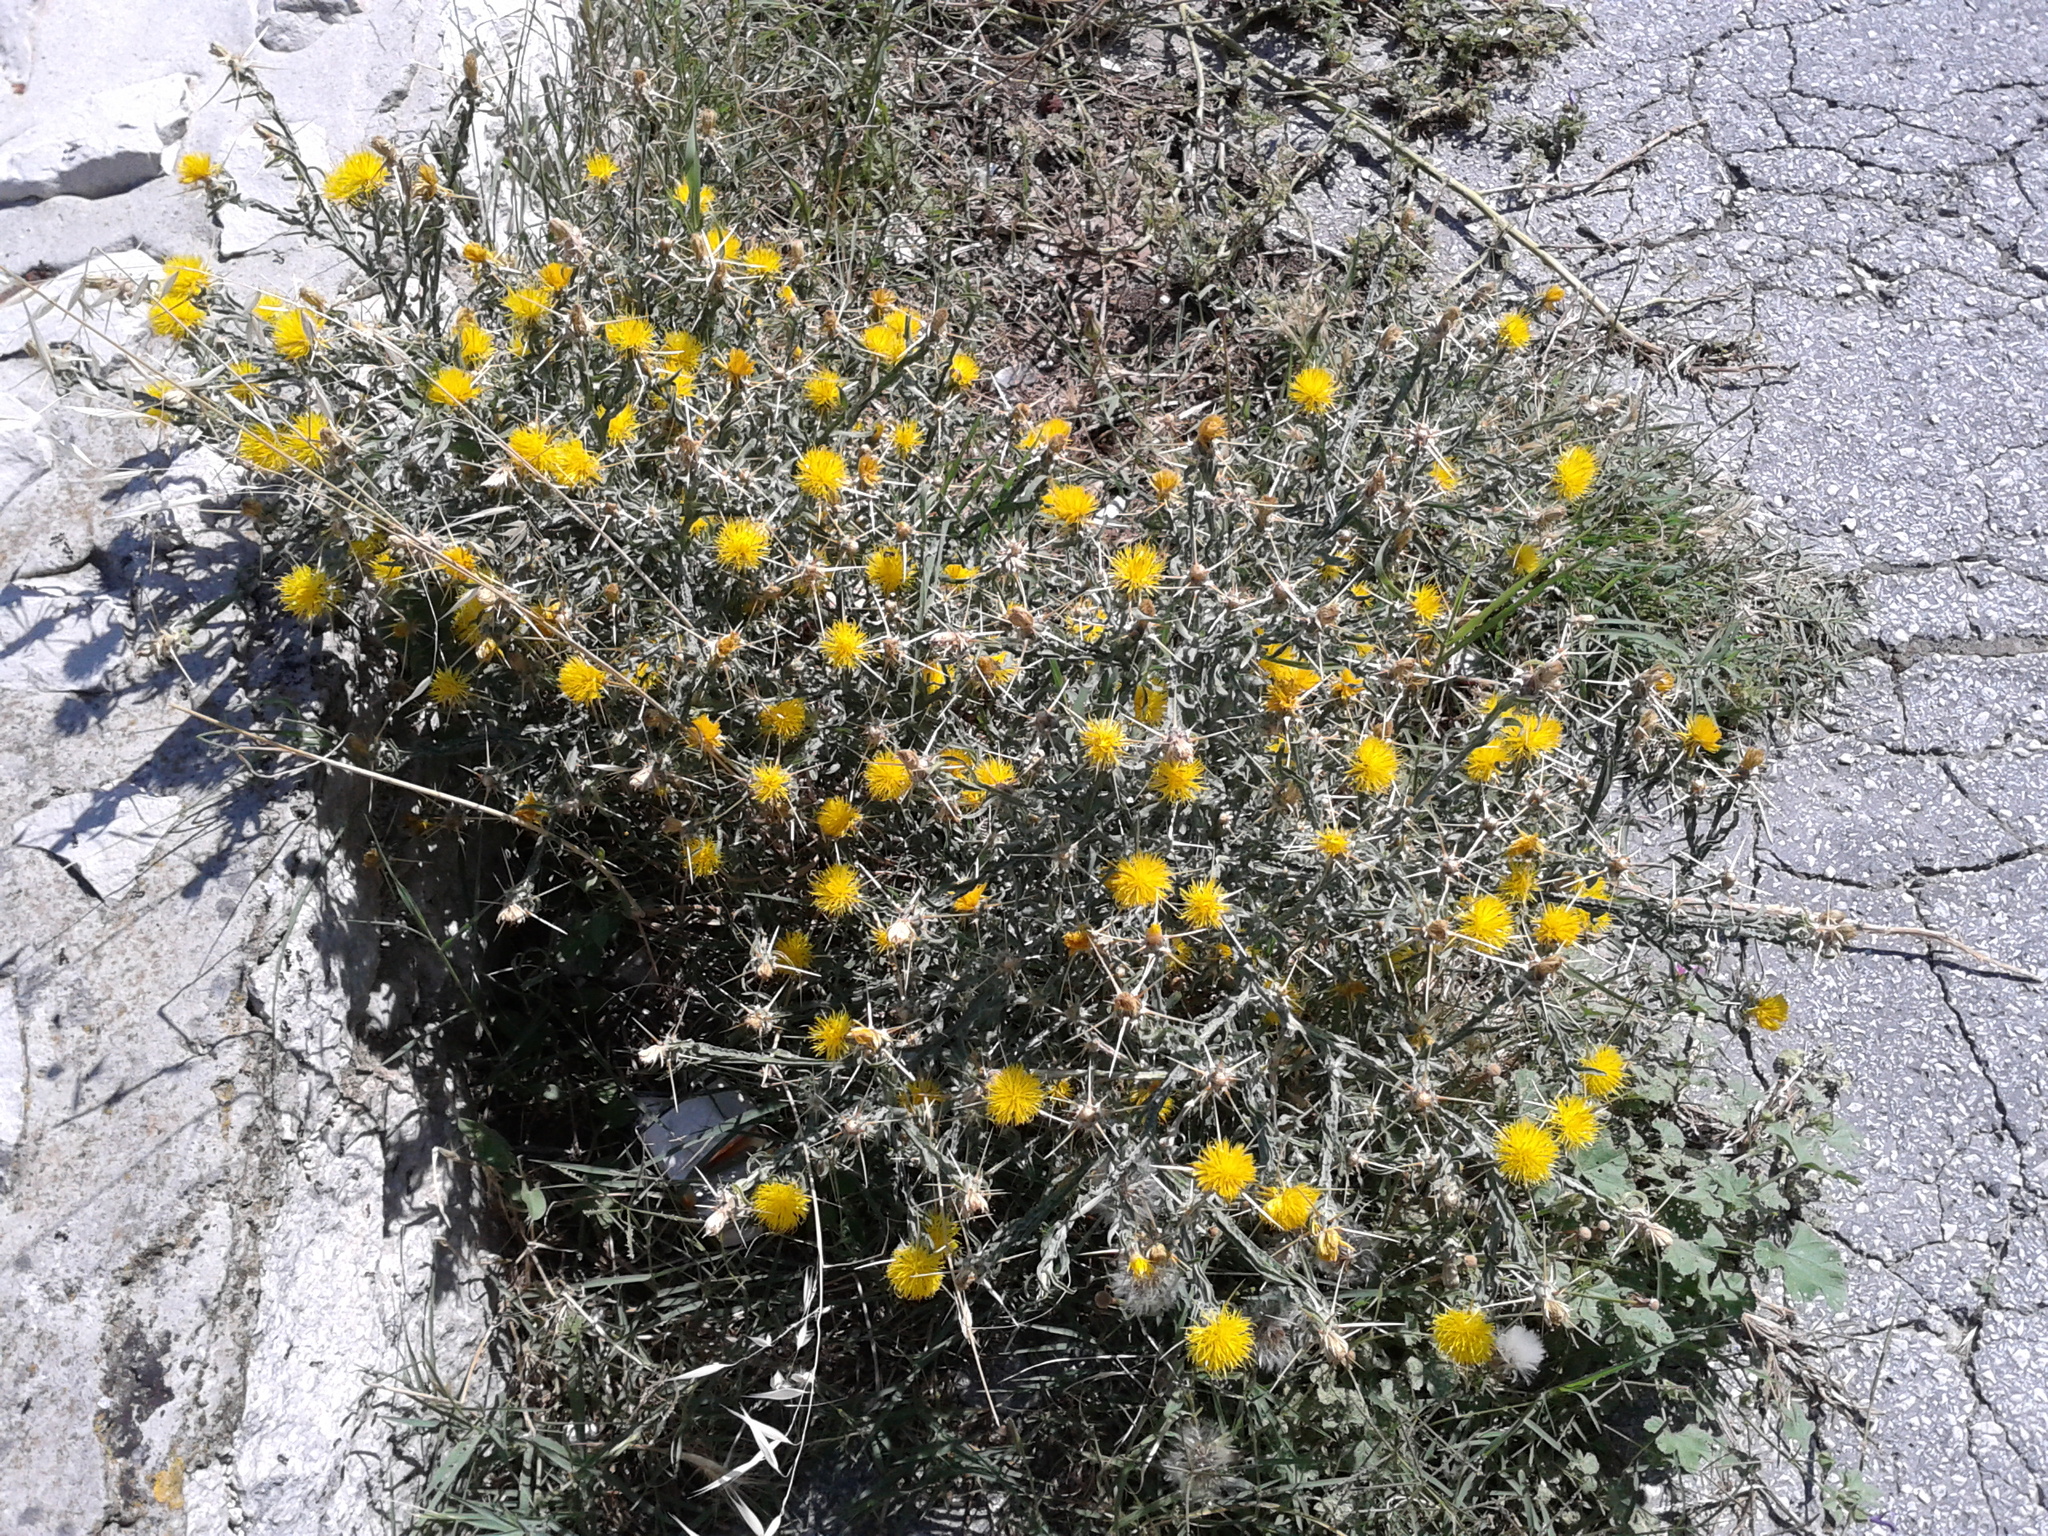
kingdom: Plantae
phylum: Tracheophyta
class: Magnoliopsida
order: Asterales
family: Asteraceae
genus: Centaurea
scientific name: Centaurea solstitialis
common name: Yellow star-thistle
